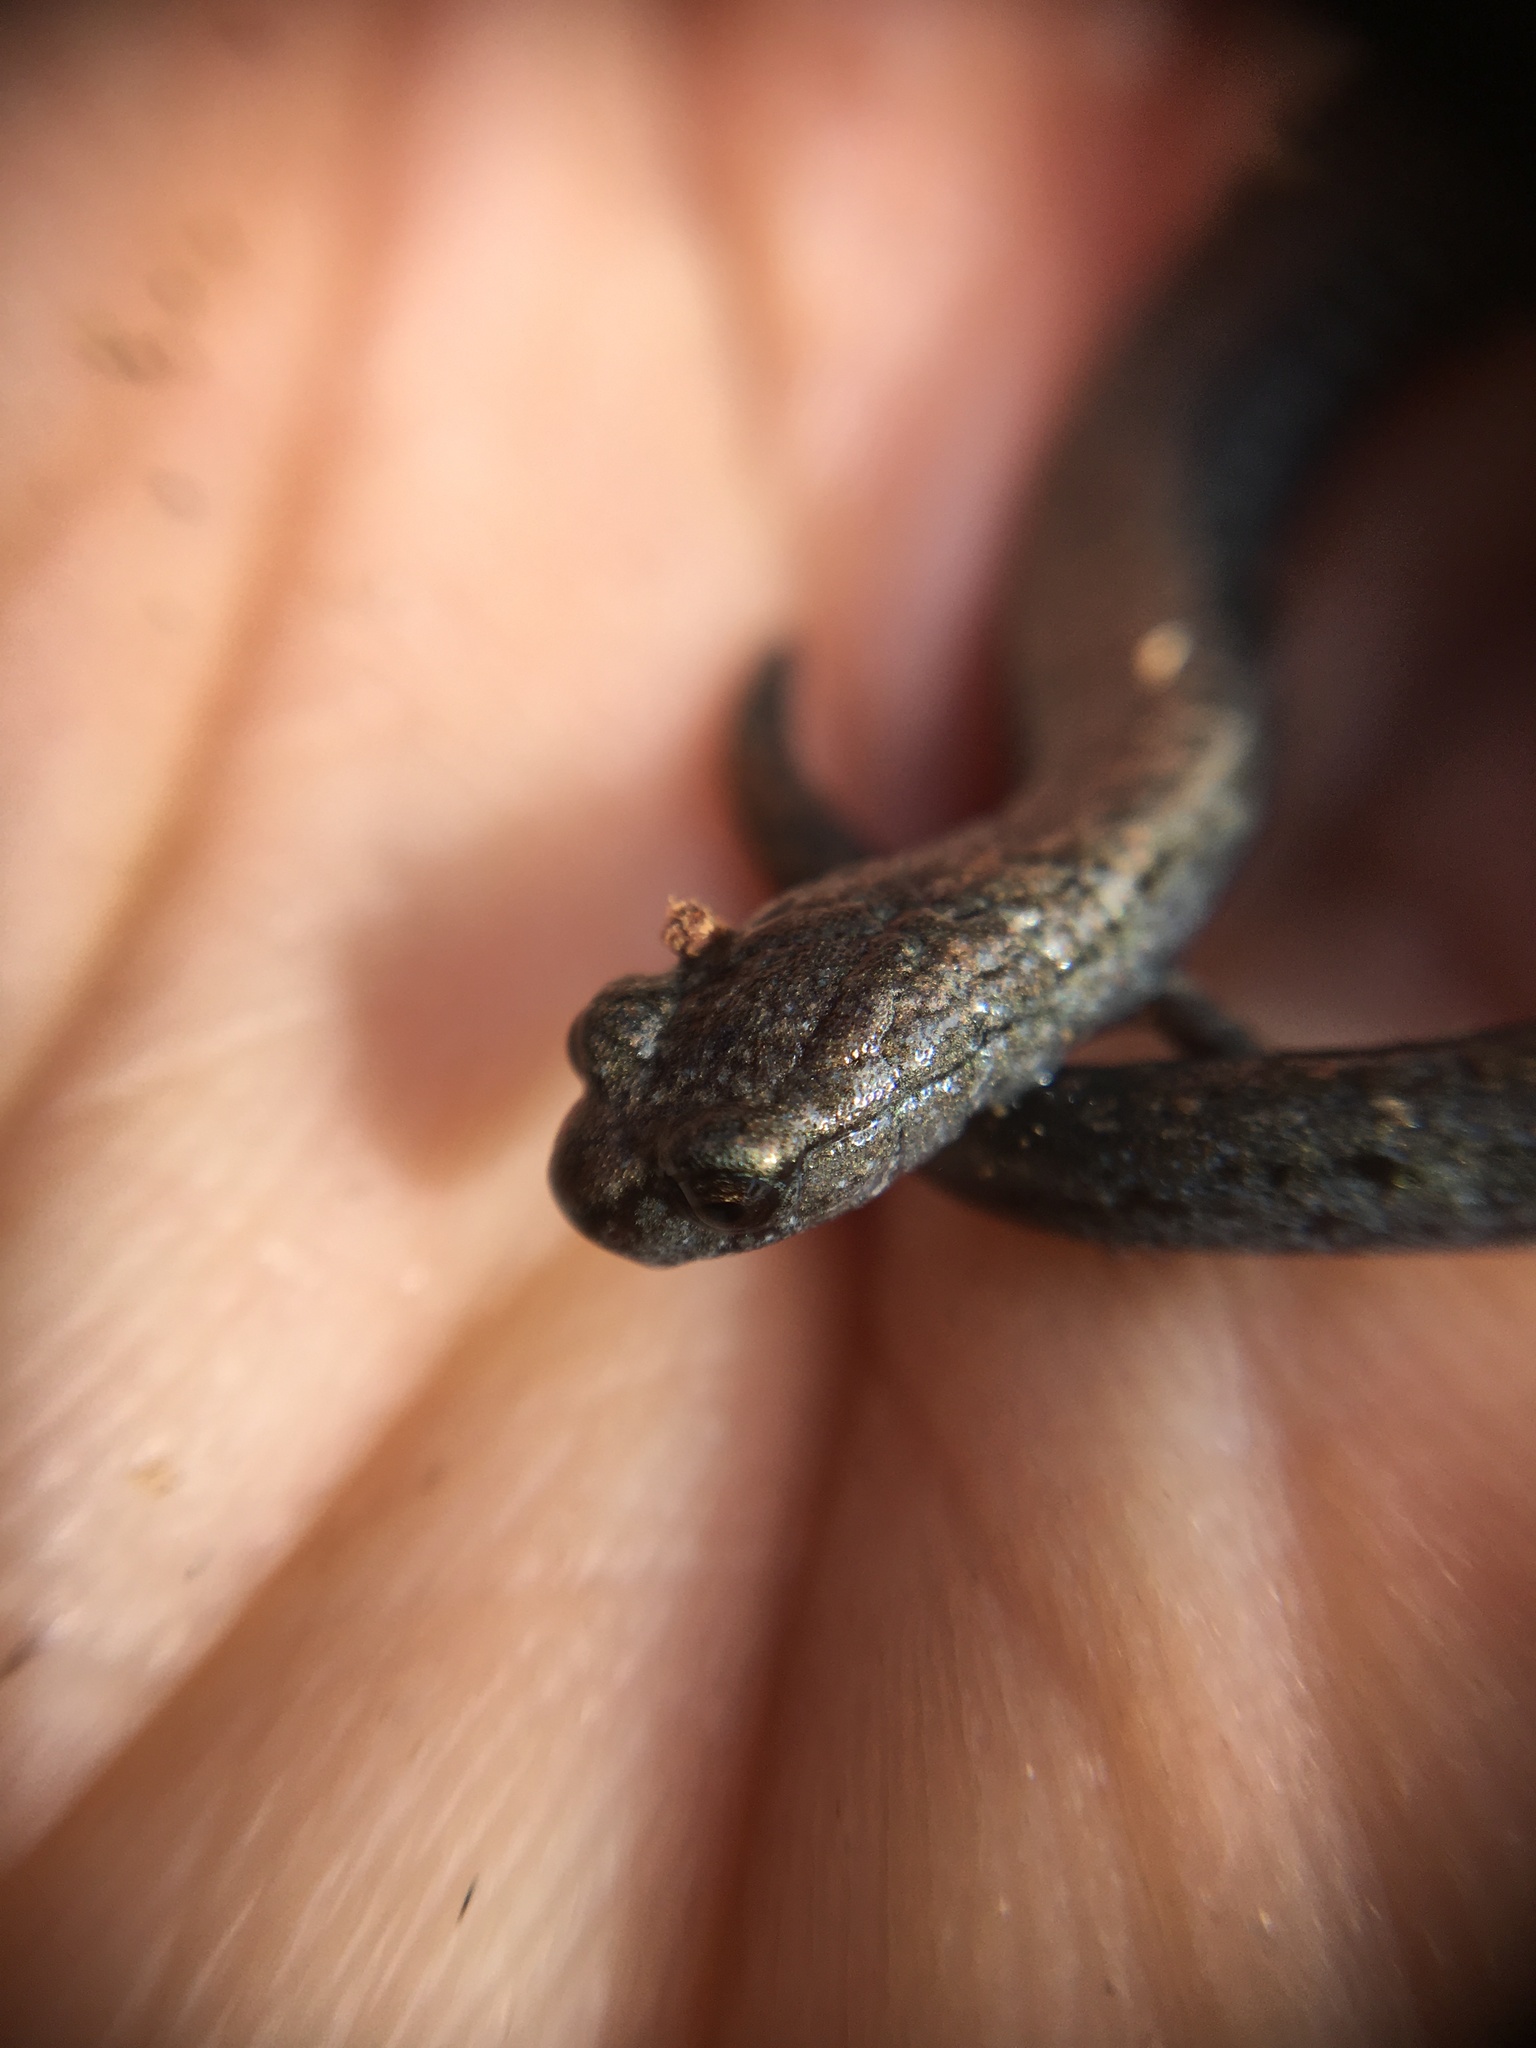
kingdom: Animalia
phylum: Chordata
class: Amphibia
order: Caudata
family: Plethodontidae
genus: Batrachoseps
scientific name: Batrachoseps nigriventris
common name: Black-bellied slender salamander
